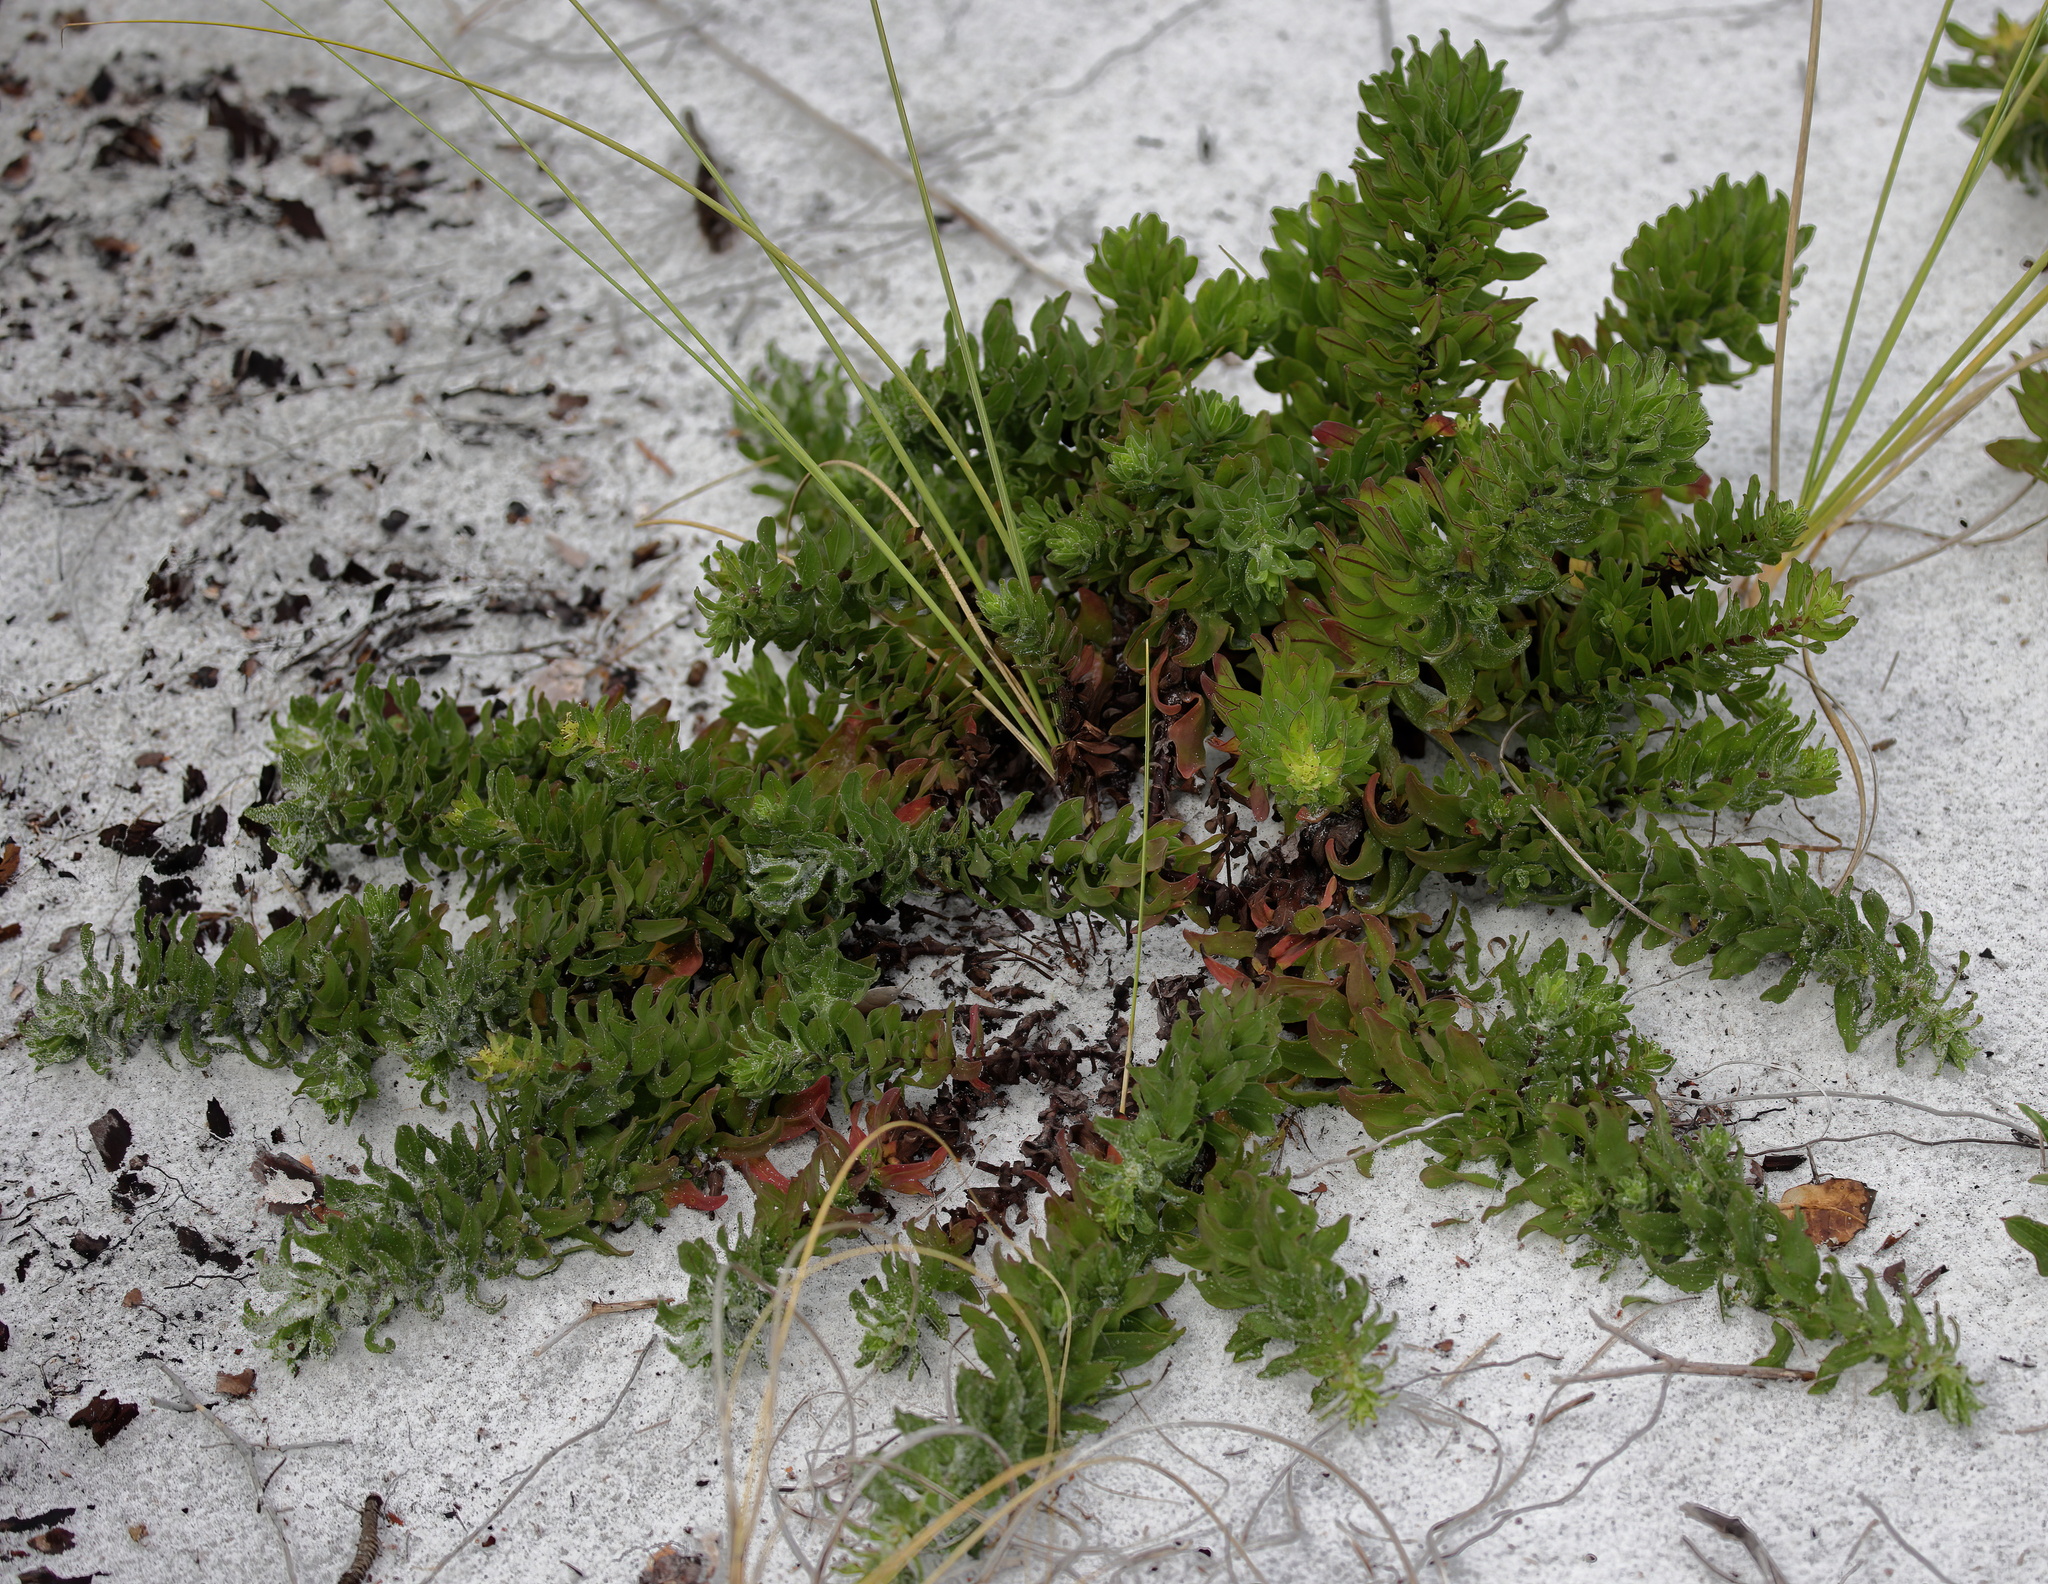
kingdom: Plantae
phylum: Tracheophyta
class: Magnoliopsida
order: Asterales
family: Asteraceae
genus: Chrysopsis
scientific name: Chrysopsis godfreyi
